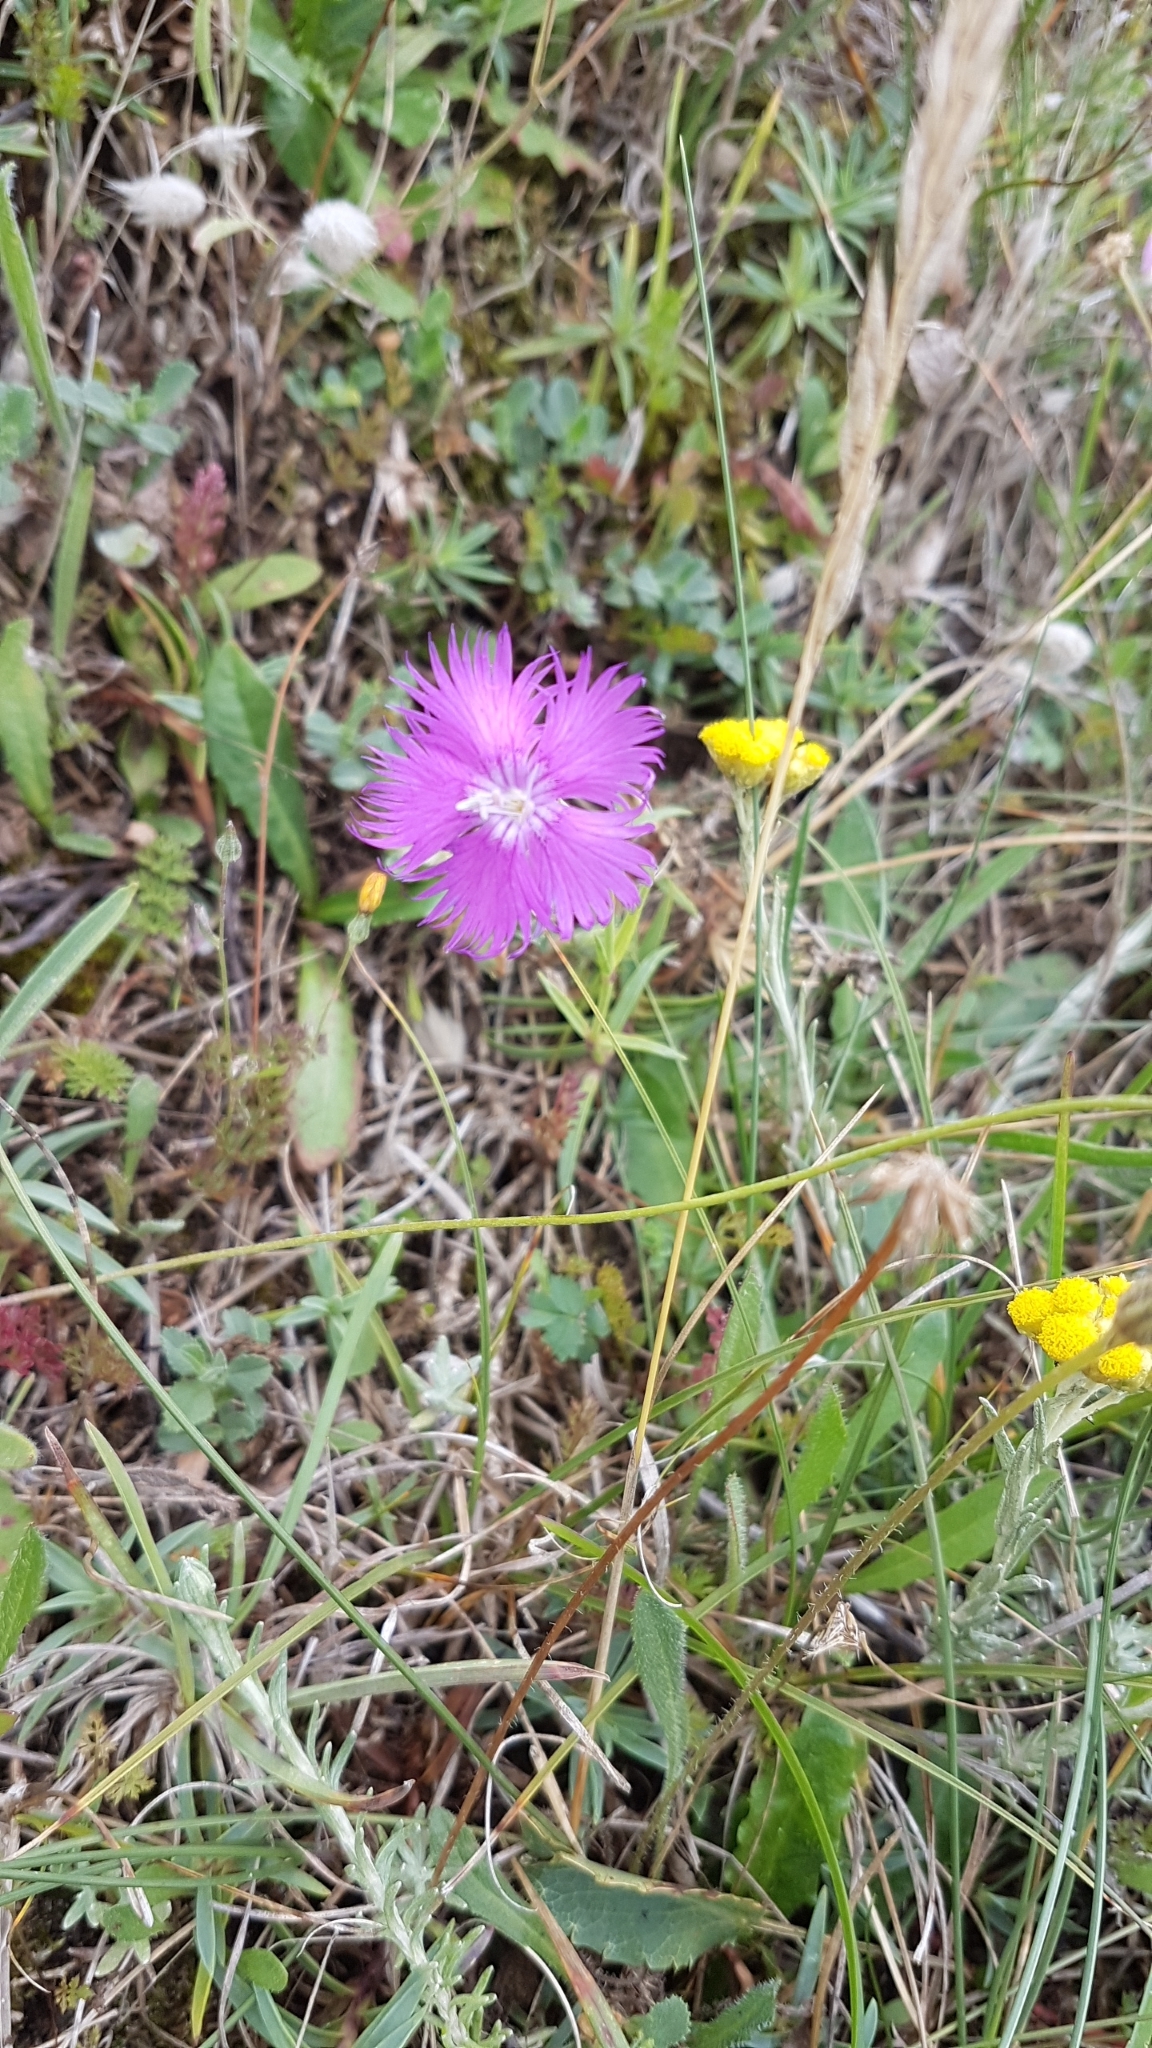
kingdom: Plantae
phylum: Tracheophyta
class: Magnoliopsida
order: Caryophyllales
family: Caryophyllaceae
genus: Dianthus
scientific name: Dianthus gallicus
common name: Jersey pink
